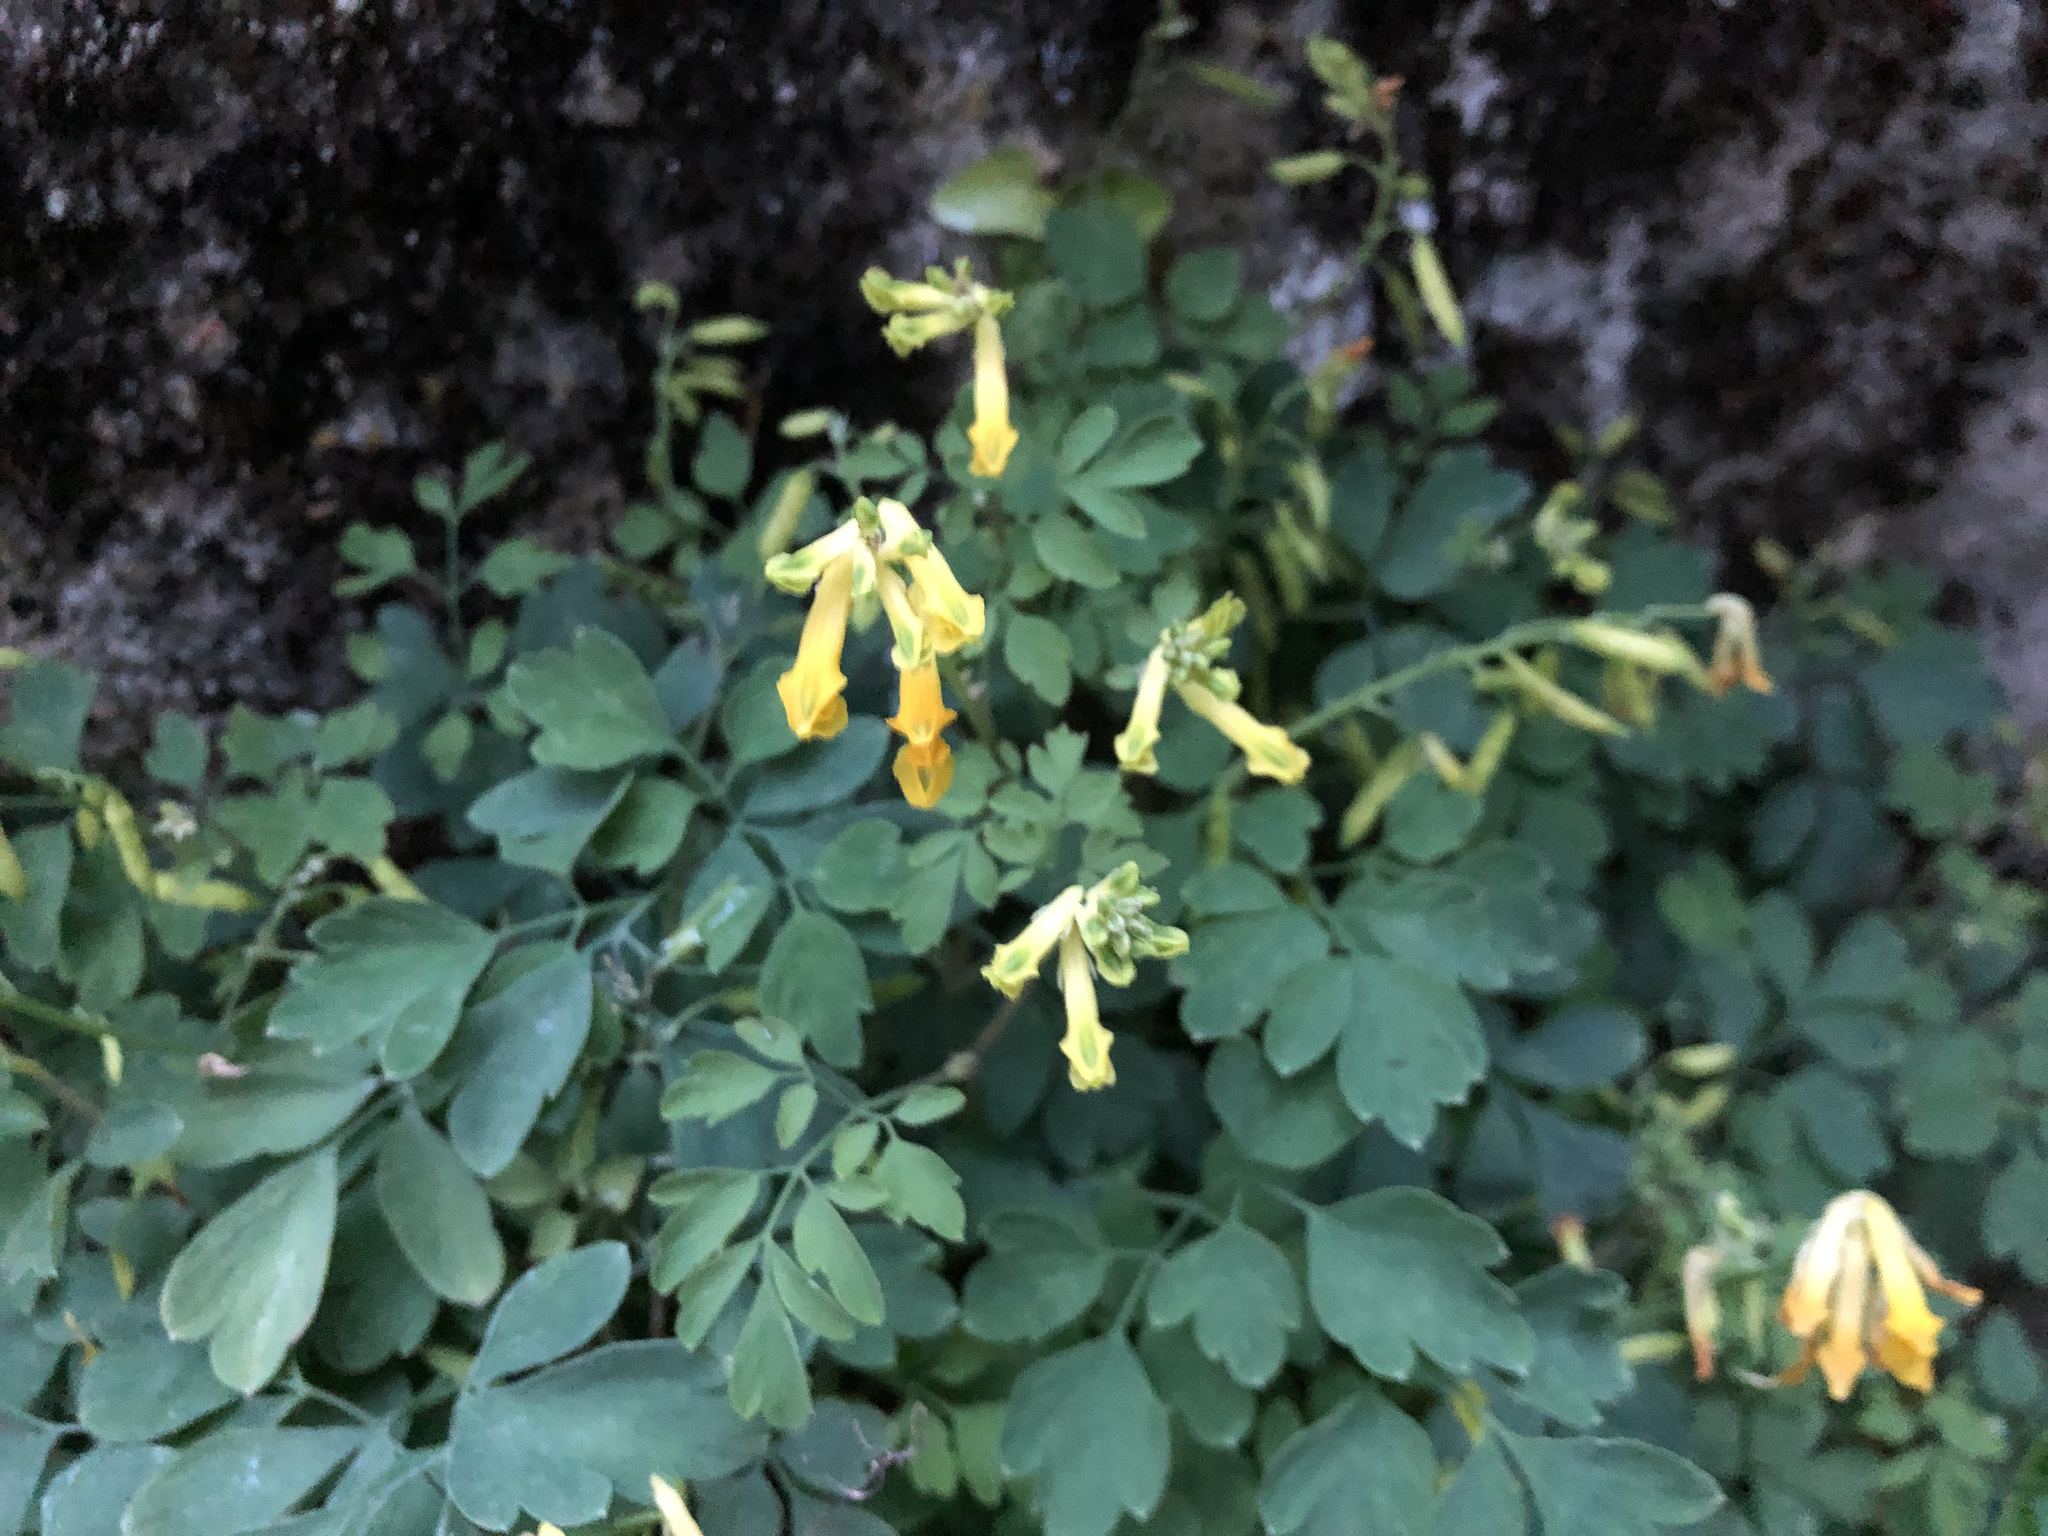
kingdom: Plantae
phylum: Tracheophyta
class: Magnoliopsida
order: Ranunculales
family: Papaveraceae
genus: Pseudofumaria
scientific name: Pseudofumaria lutea
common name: Yellow corydalis
